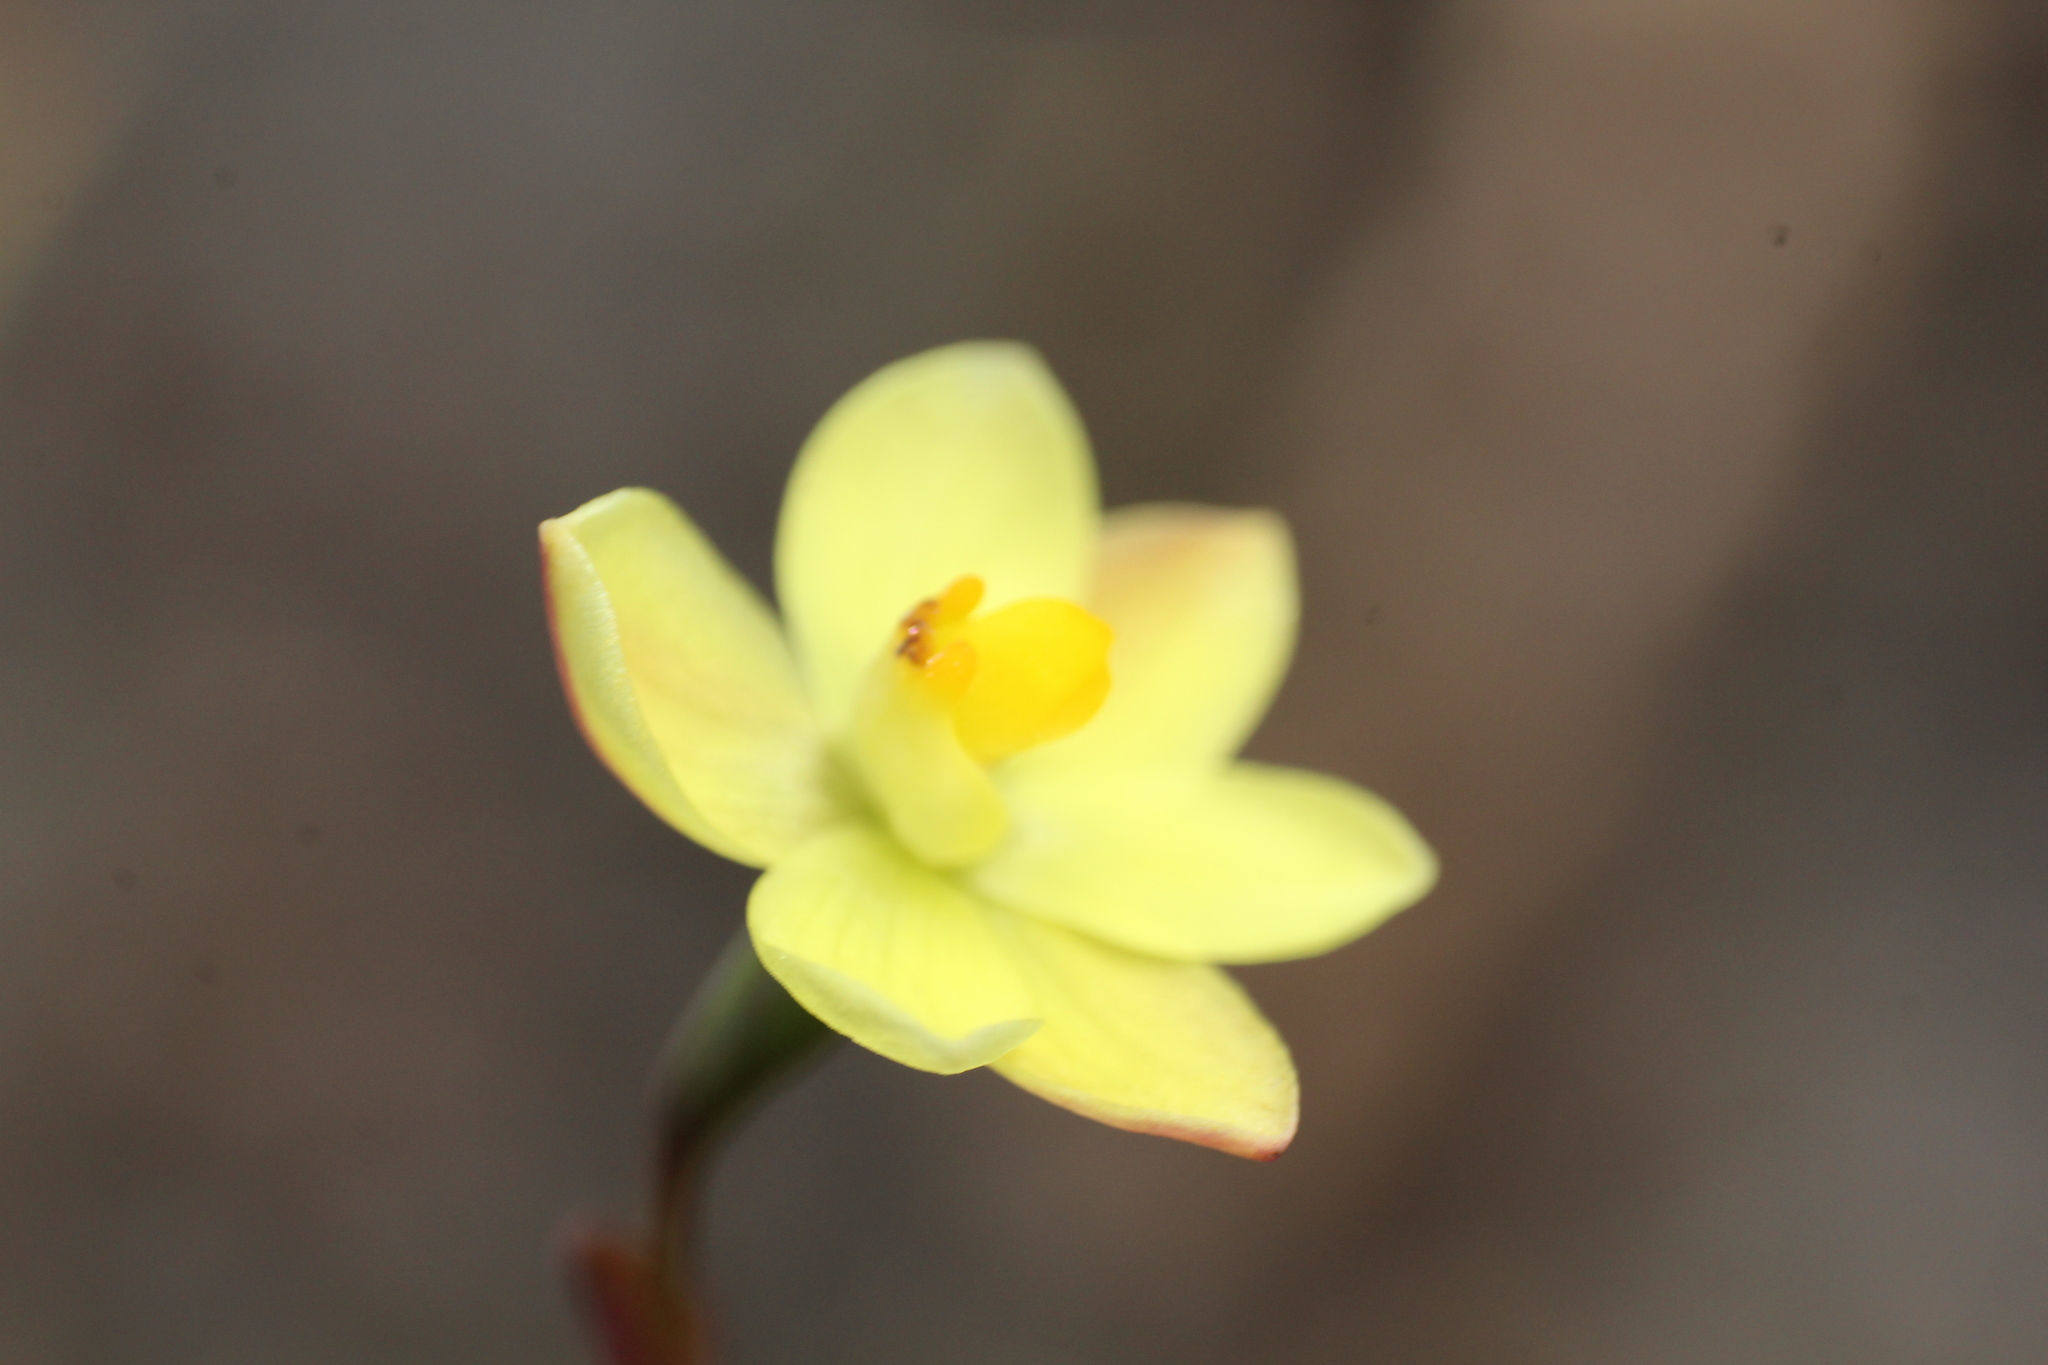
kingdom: Plantae
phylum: Tracheophyta
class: Liliopsida
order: Asparagales
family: Orchidaceae
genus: Thelymitra
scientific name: Thelymitra flexuosa
